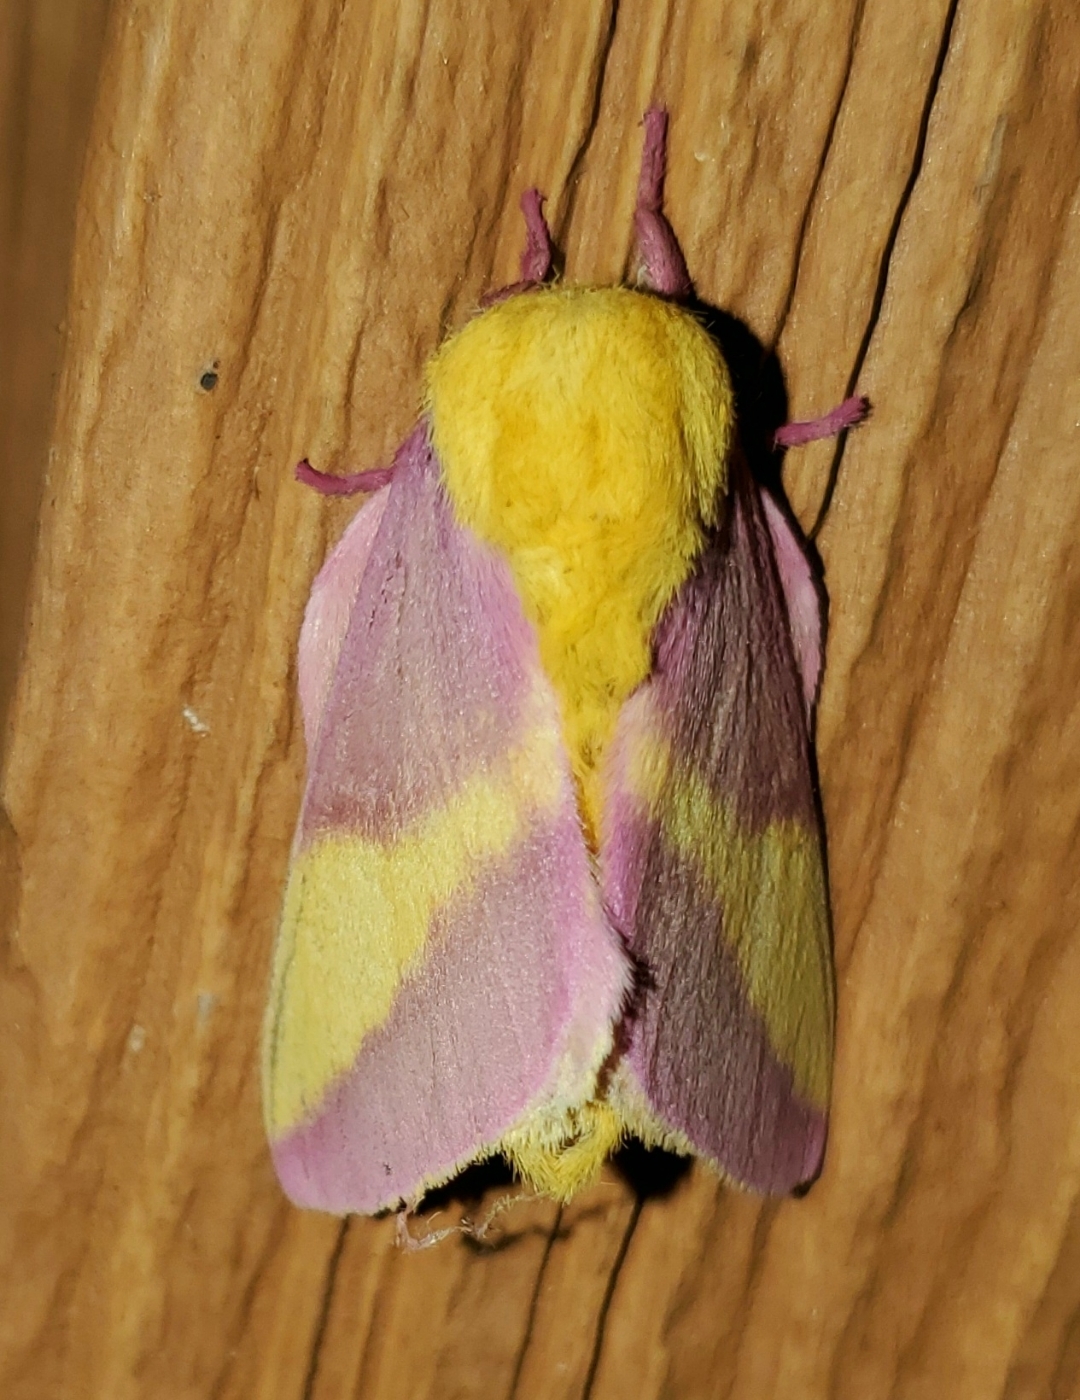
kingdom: Animalia
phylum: Arthropoda
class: Insecta
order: Lepidoptera
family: Saturniidae
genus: Dryocampa
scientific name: Dryocampa rubicunda
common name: Rosy maple moth
